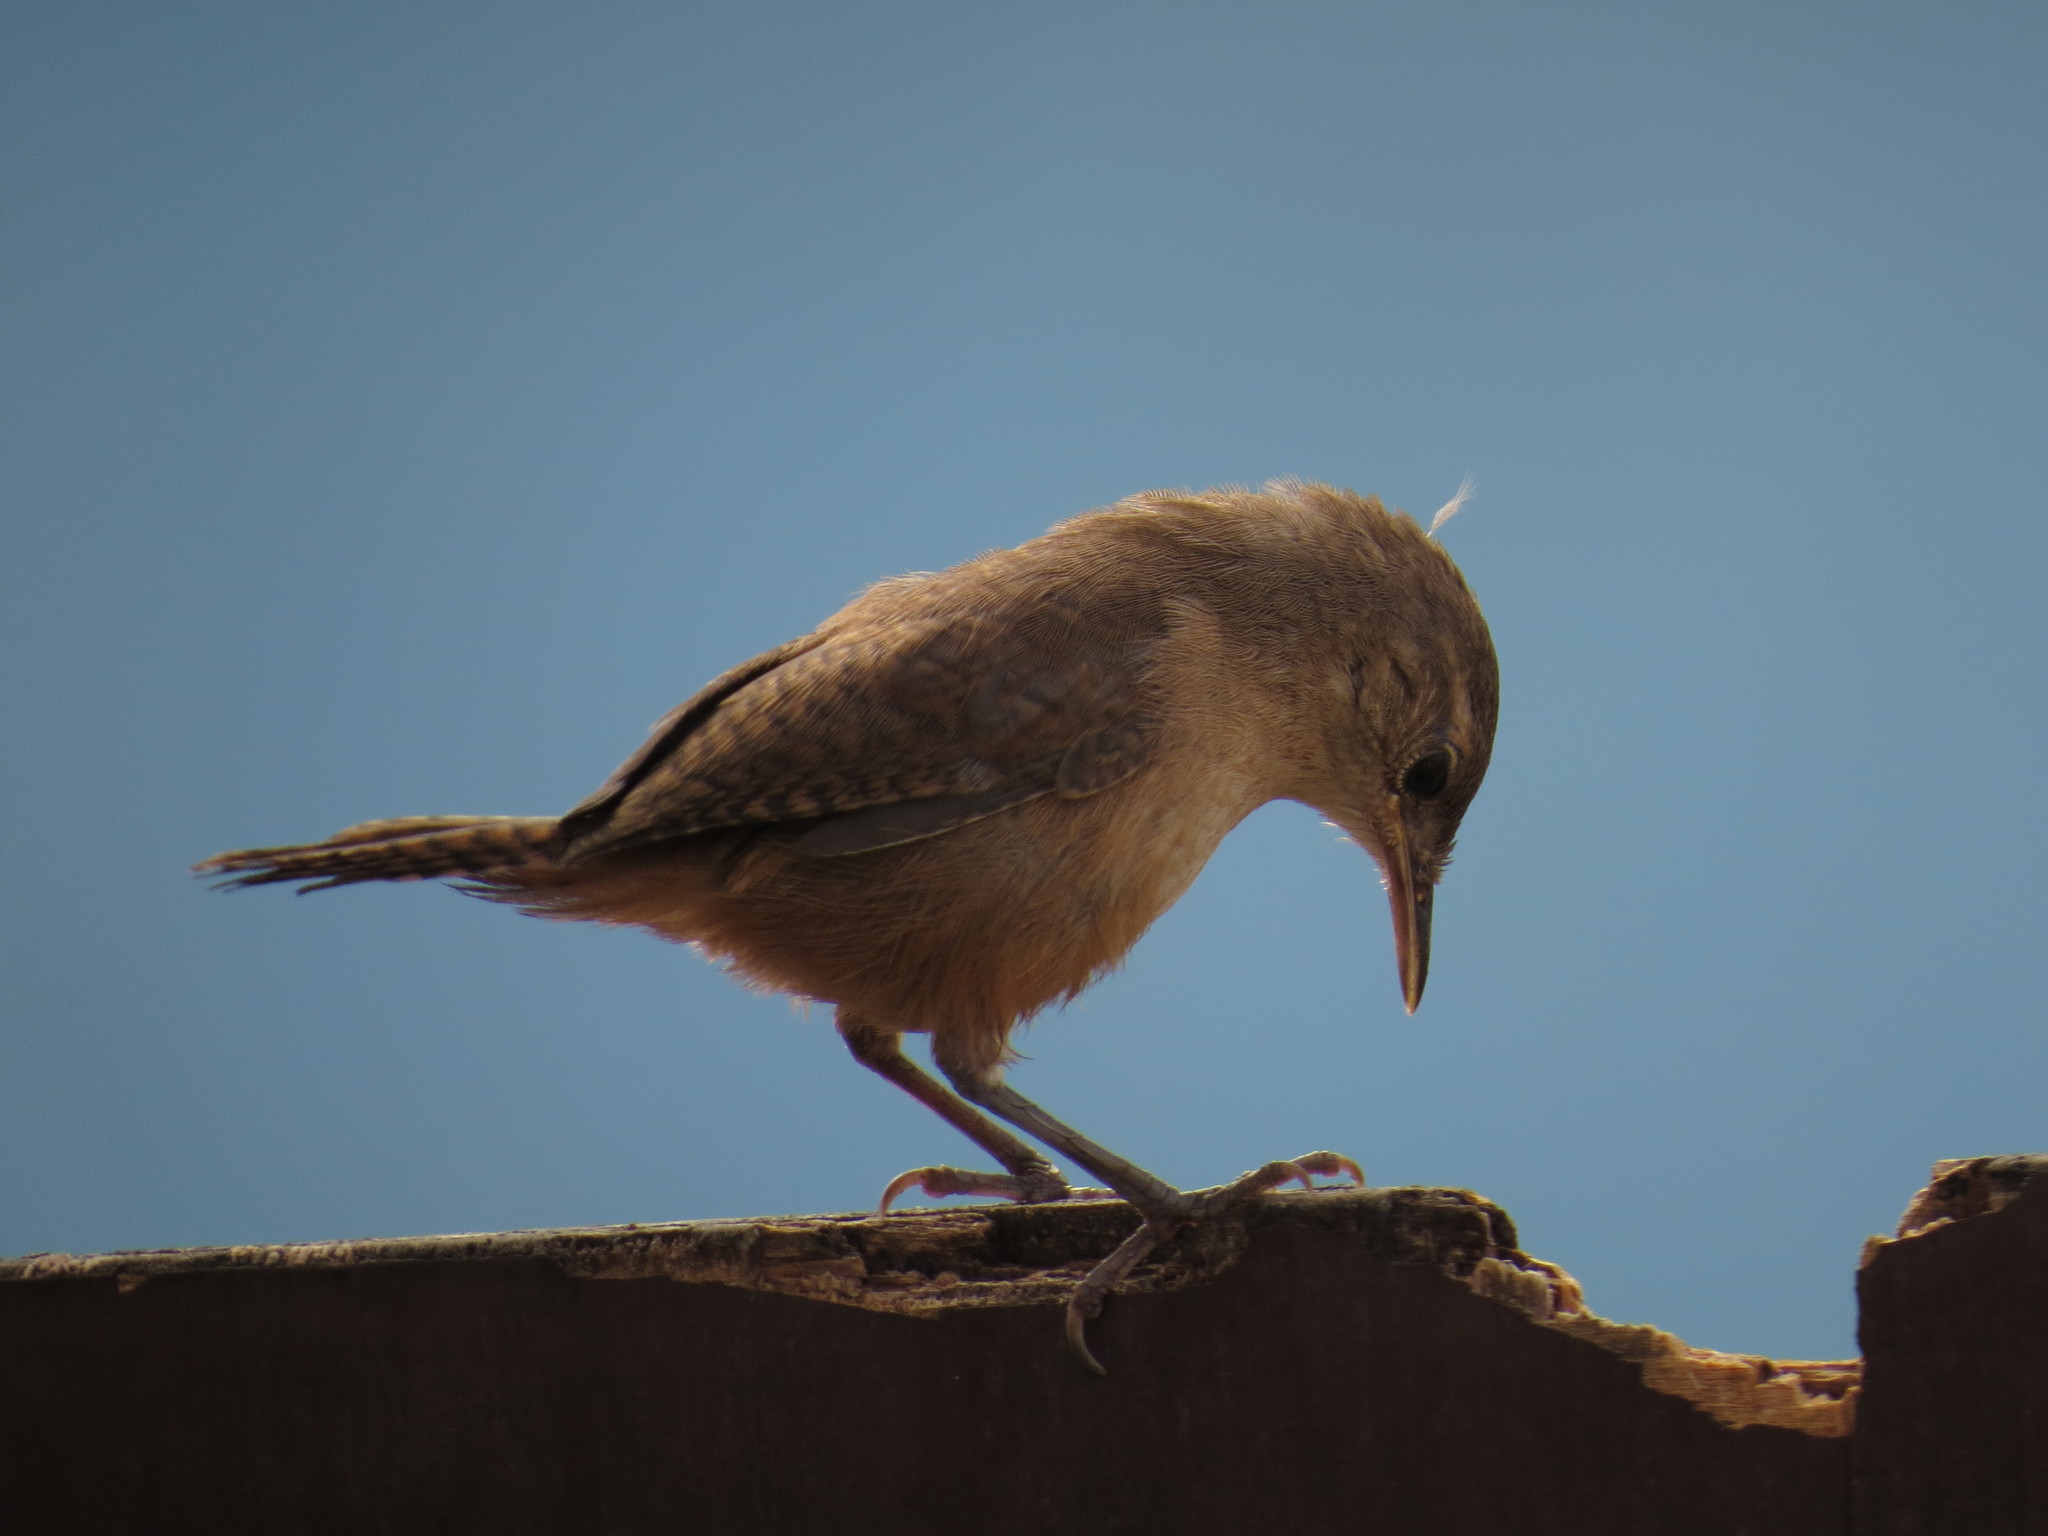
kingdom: Animalia
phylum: Chordata
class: Aves
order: Passeriformes
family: Troglodytidae
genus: Troglodytes
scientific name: Troglodytes aedon
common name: House wren
